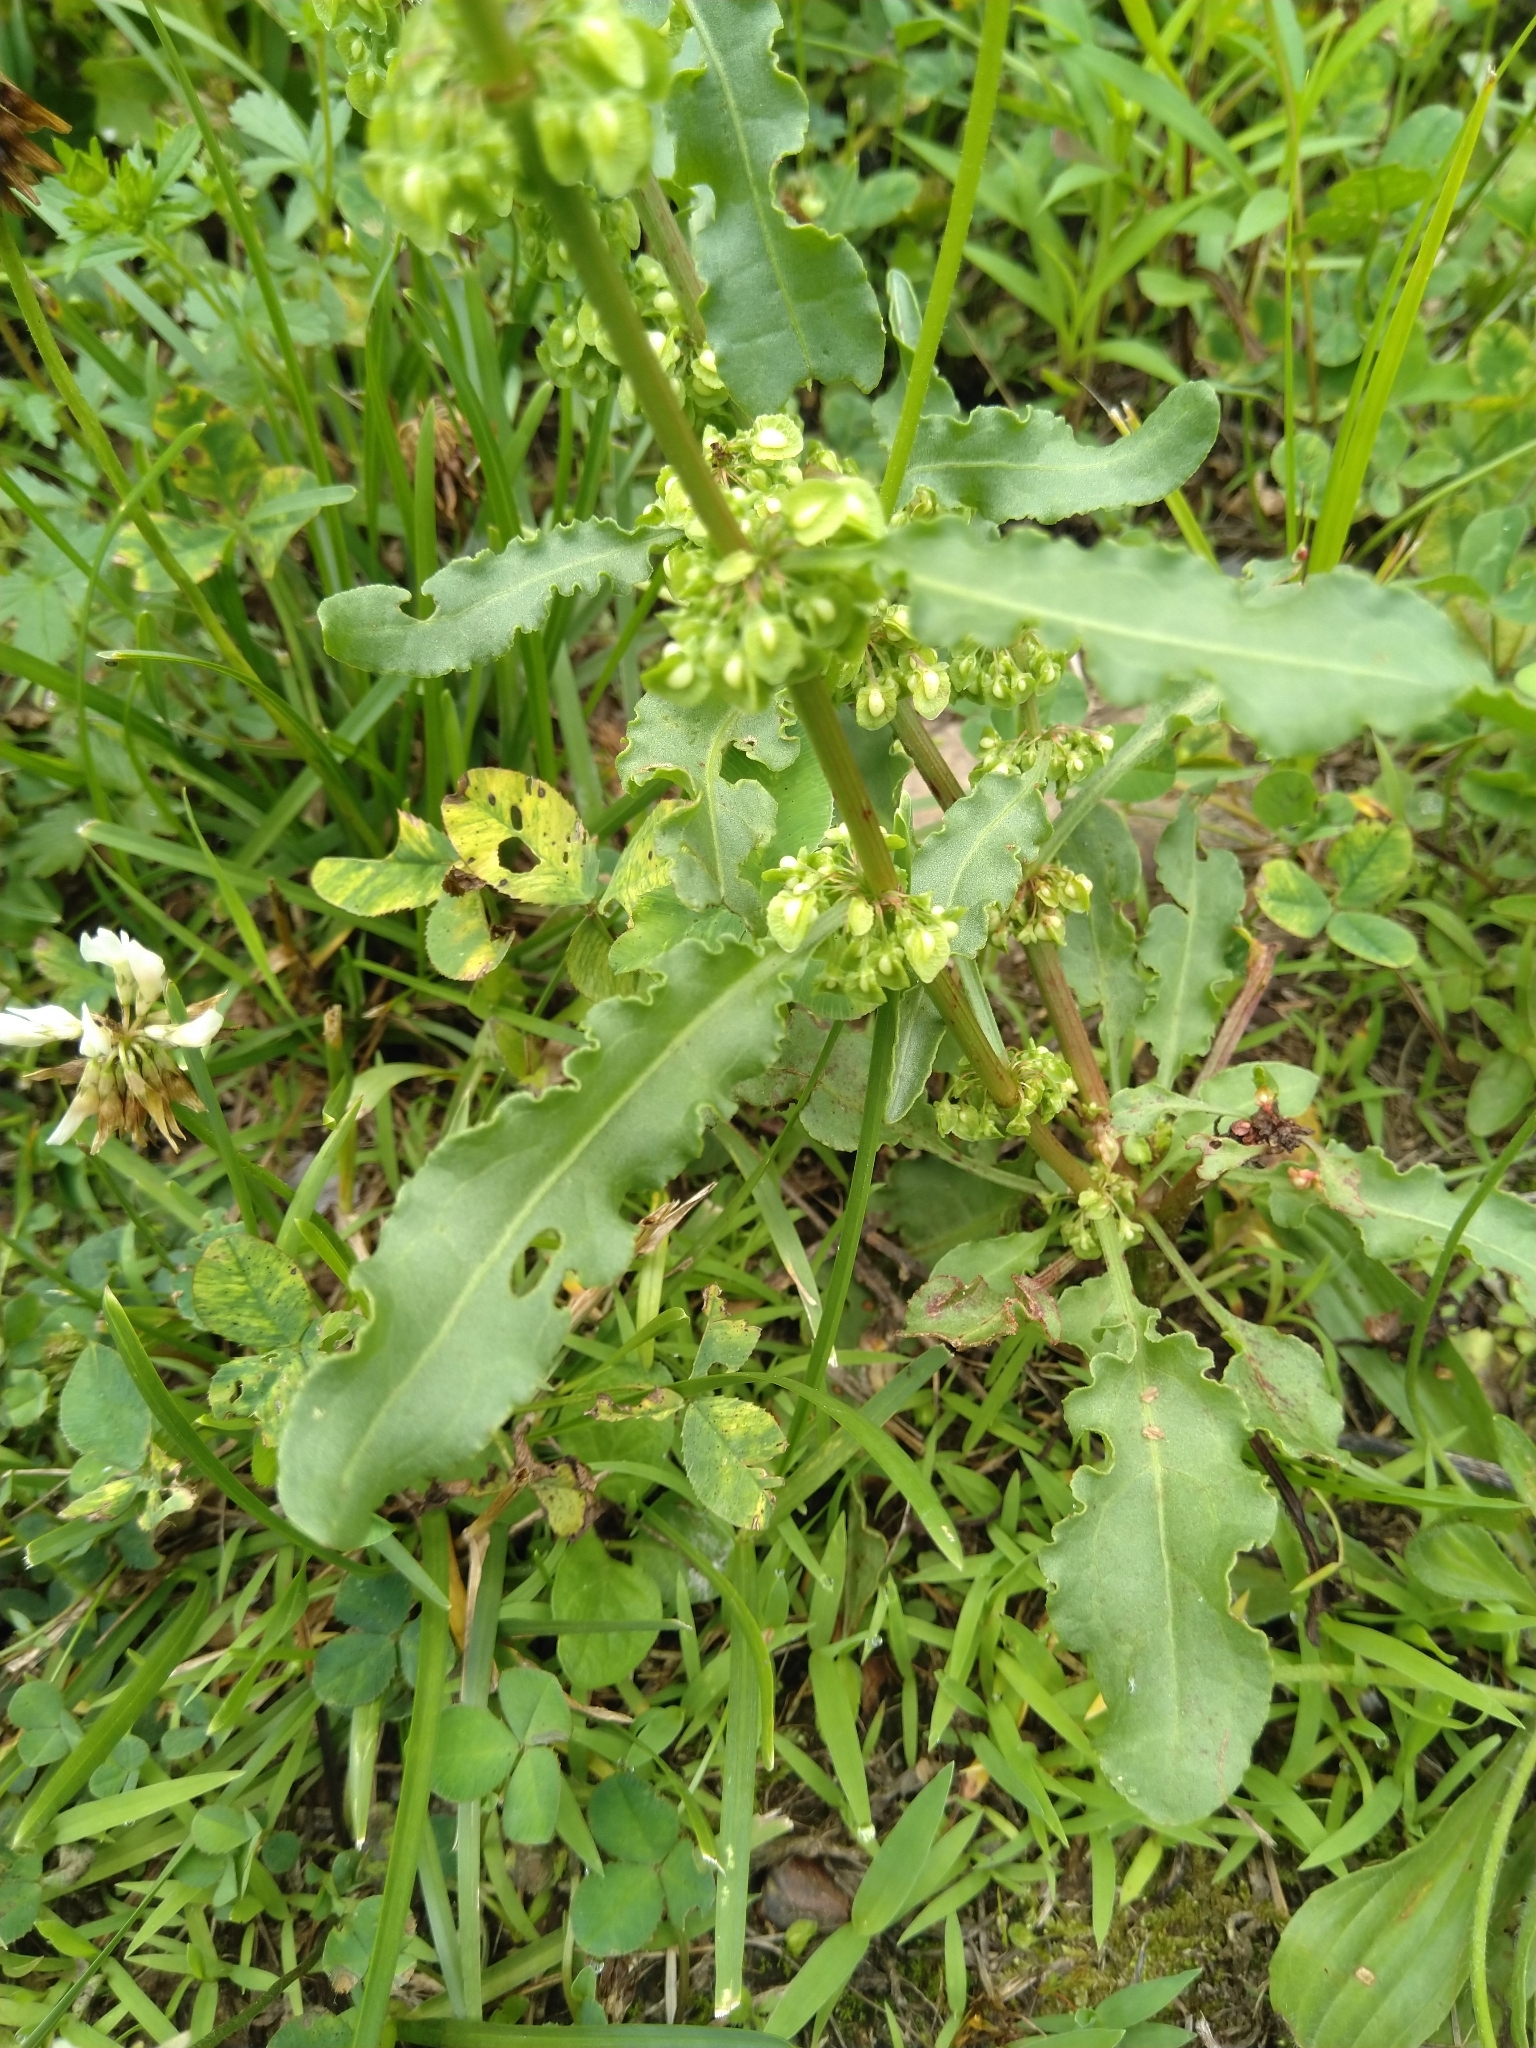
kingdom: Plantae
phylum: Tracheophyta
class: Magnoliopsida
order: Caryophyllales
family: Polygonaceae
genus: Rumex
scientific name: Rumex crispus
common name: Curled dock
